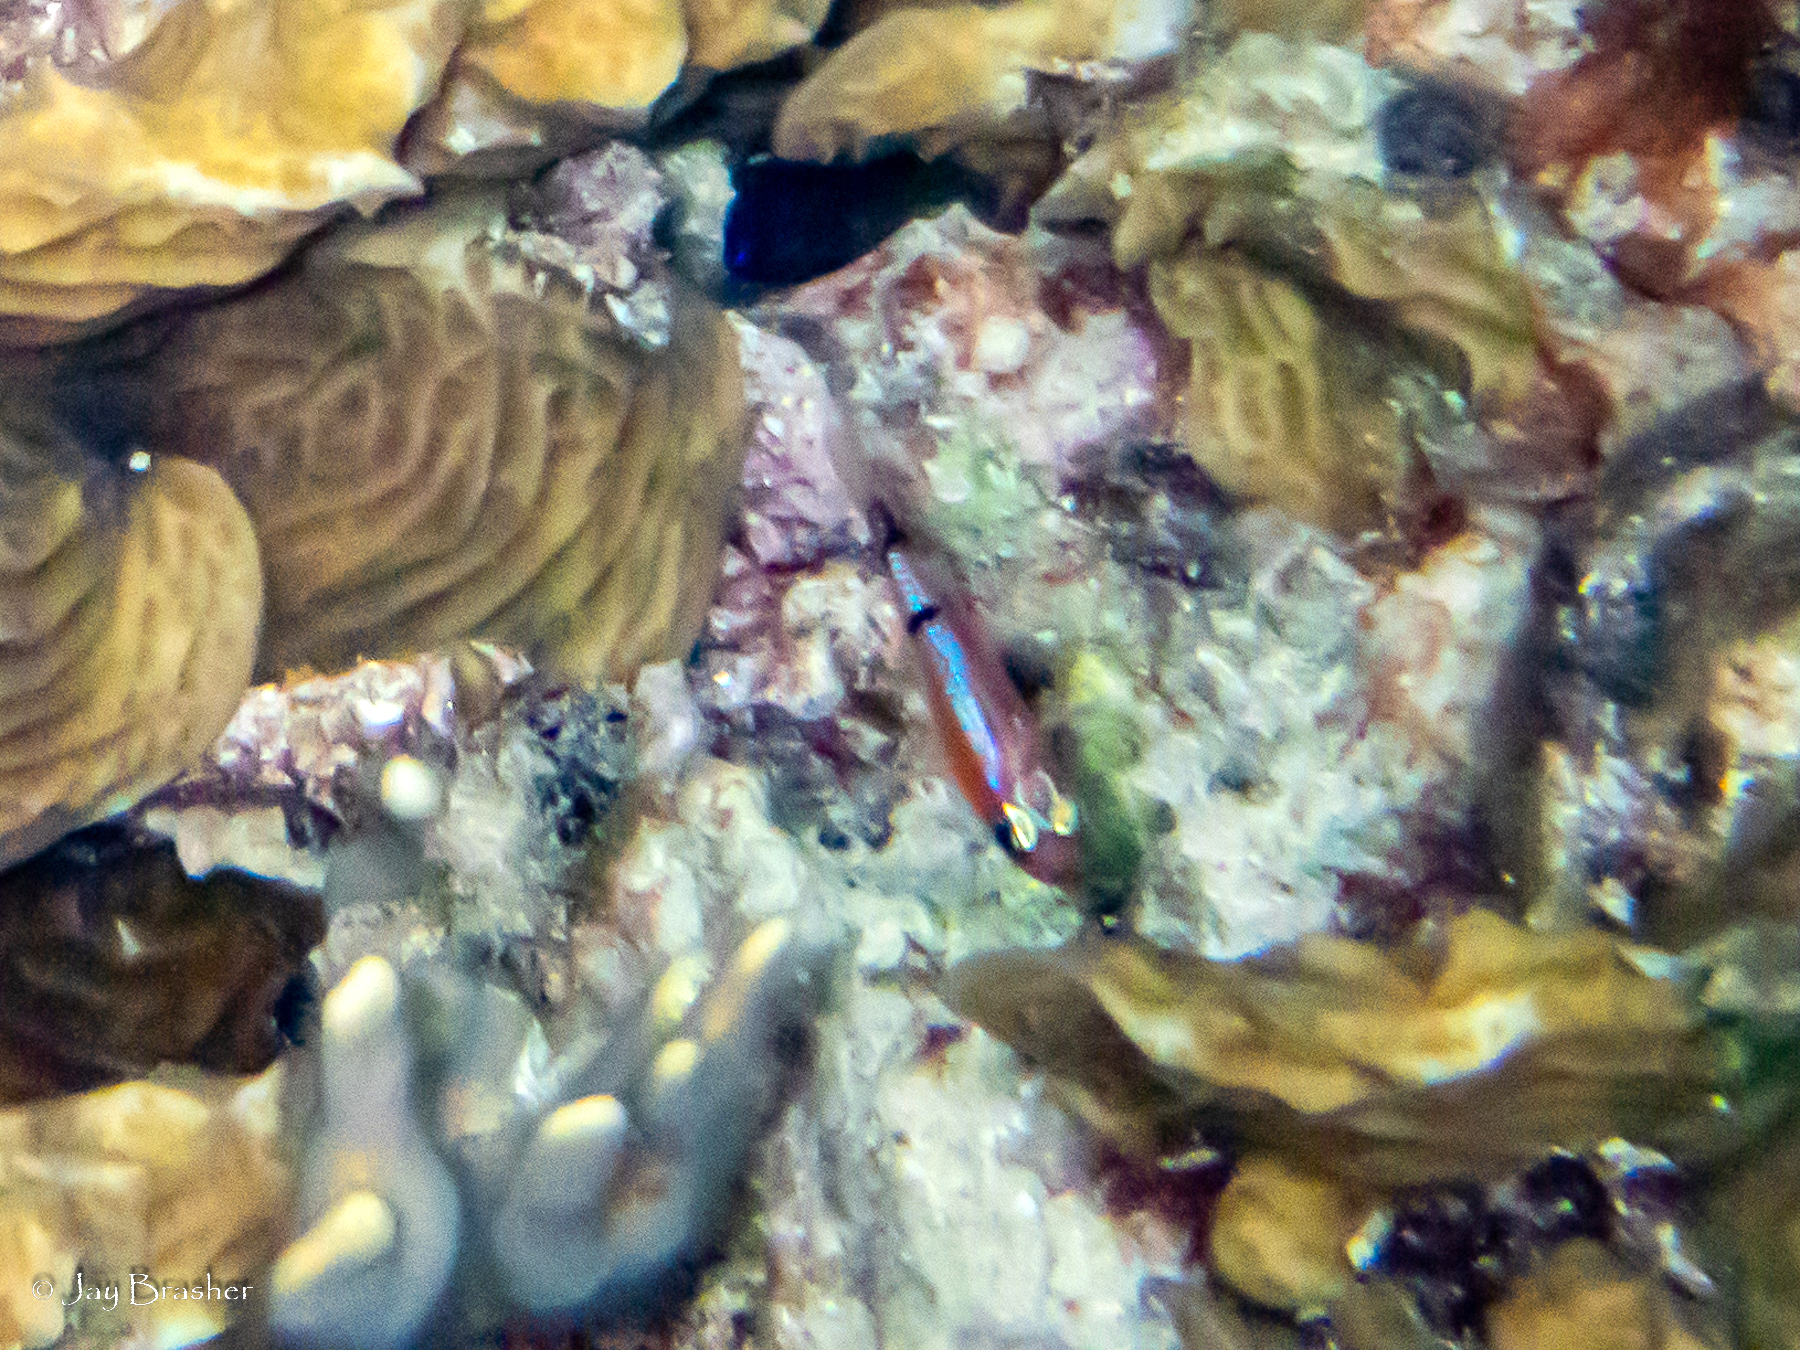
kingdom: Animalia
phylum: Chordata
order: Perciformes
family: Apogonidae
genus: Apogon
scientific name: Apogon townsendi
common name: Belted cardinalfish
